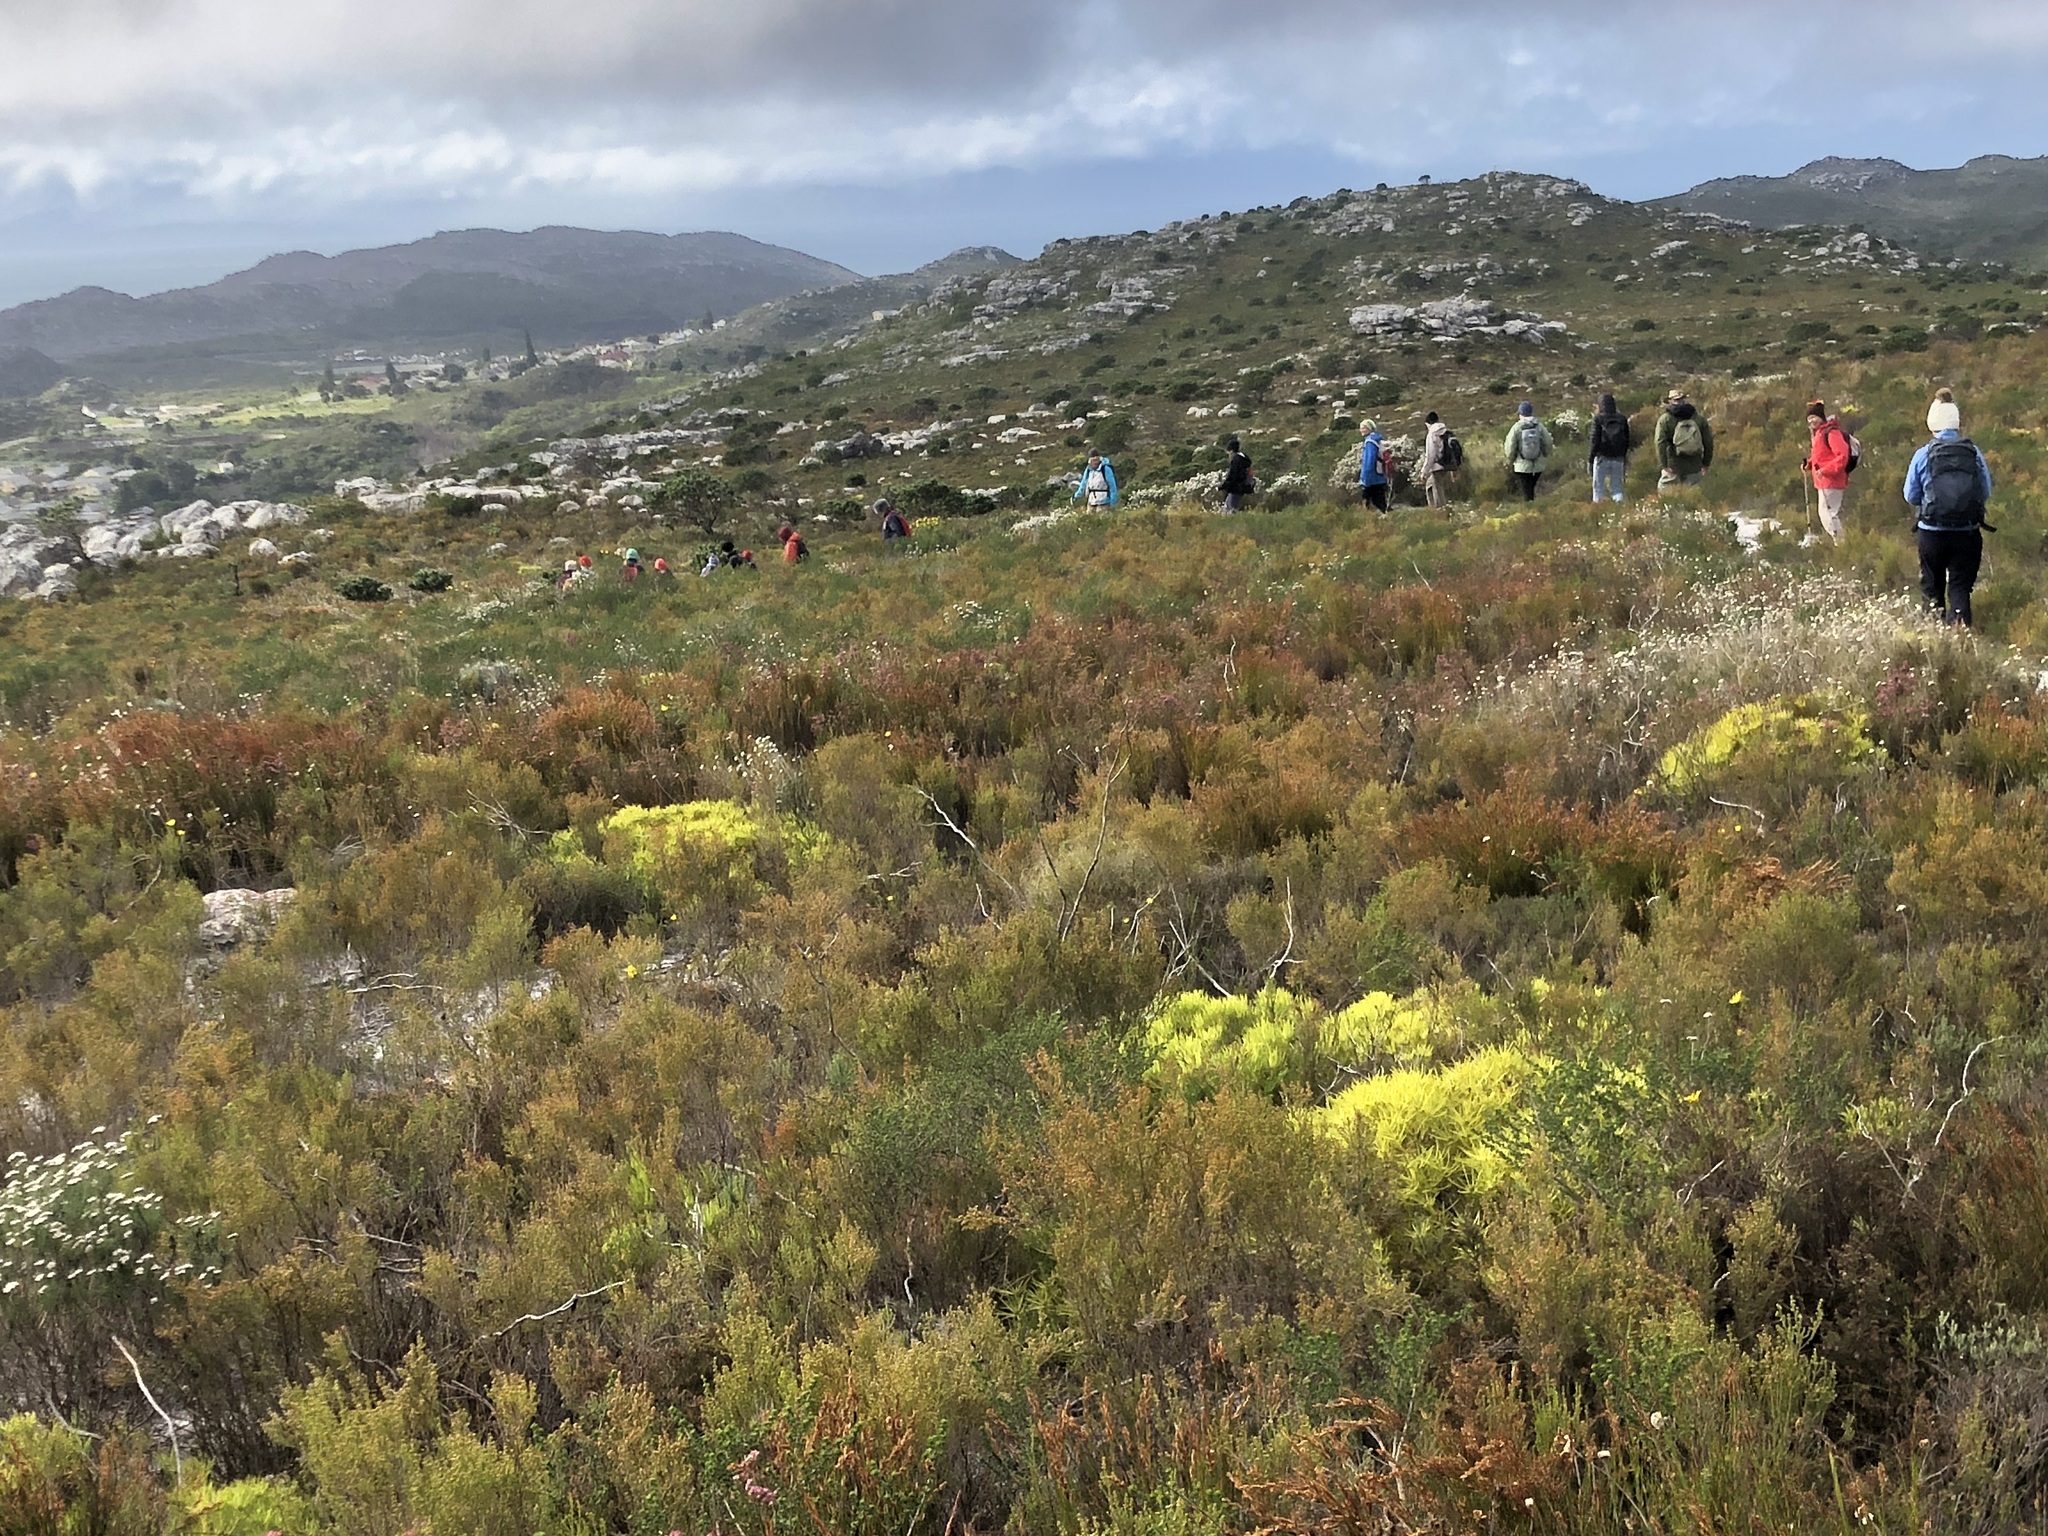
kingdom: Plantae
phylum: Tracheophyta
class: Magnoliopsida
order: Proteales
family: Proteaceae
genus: Leucadendron
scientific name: Leucadendron salignum
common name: Common sunshine conebush
